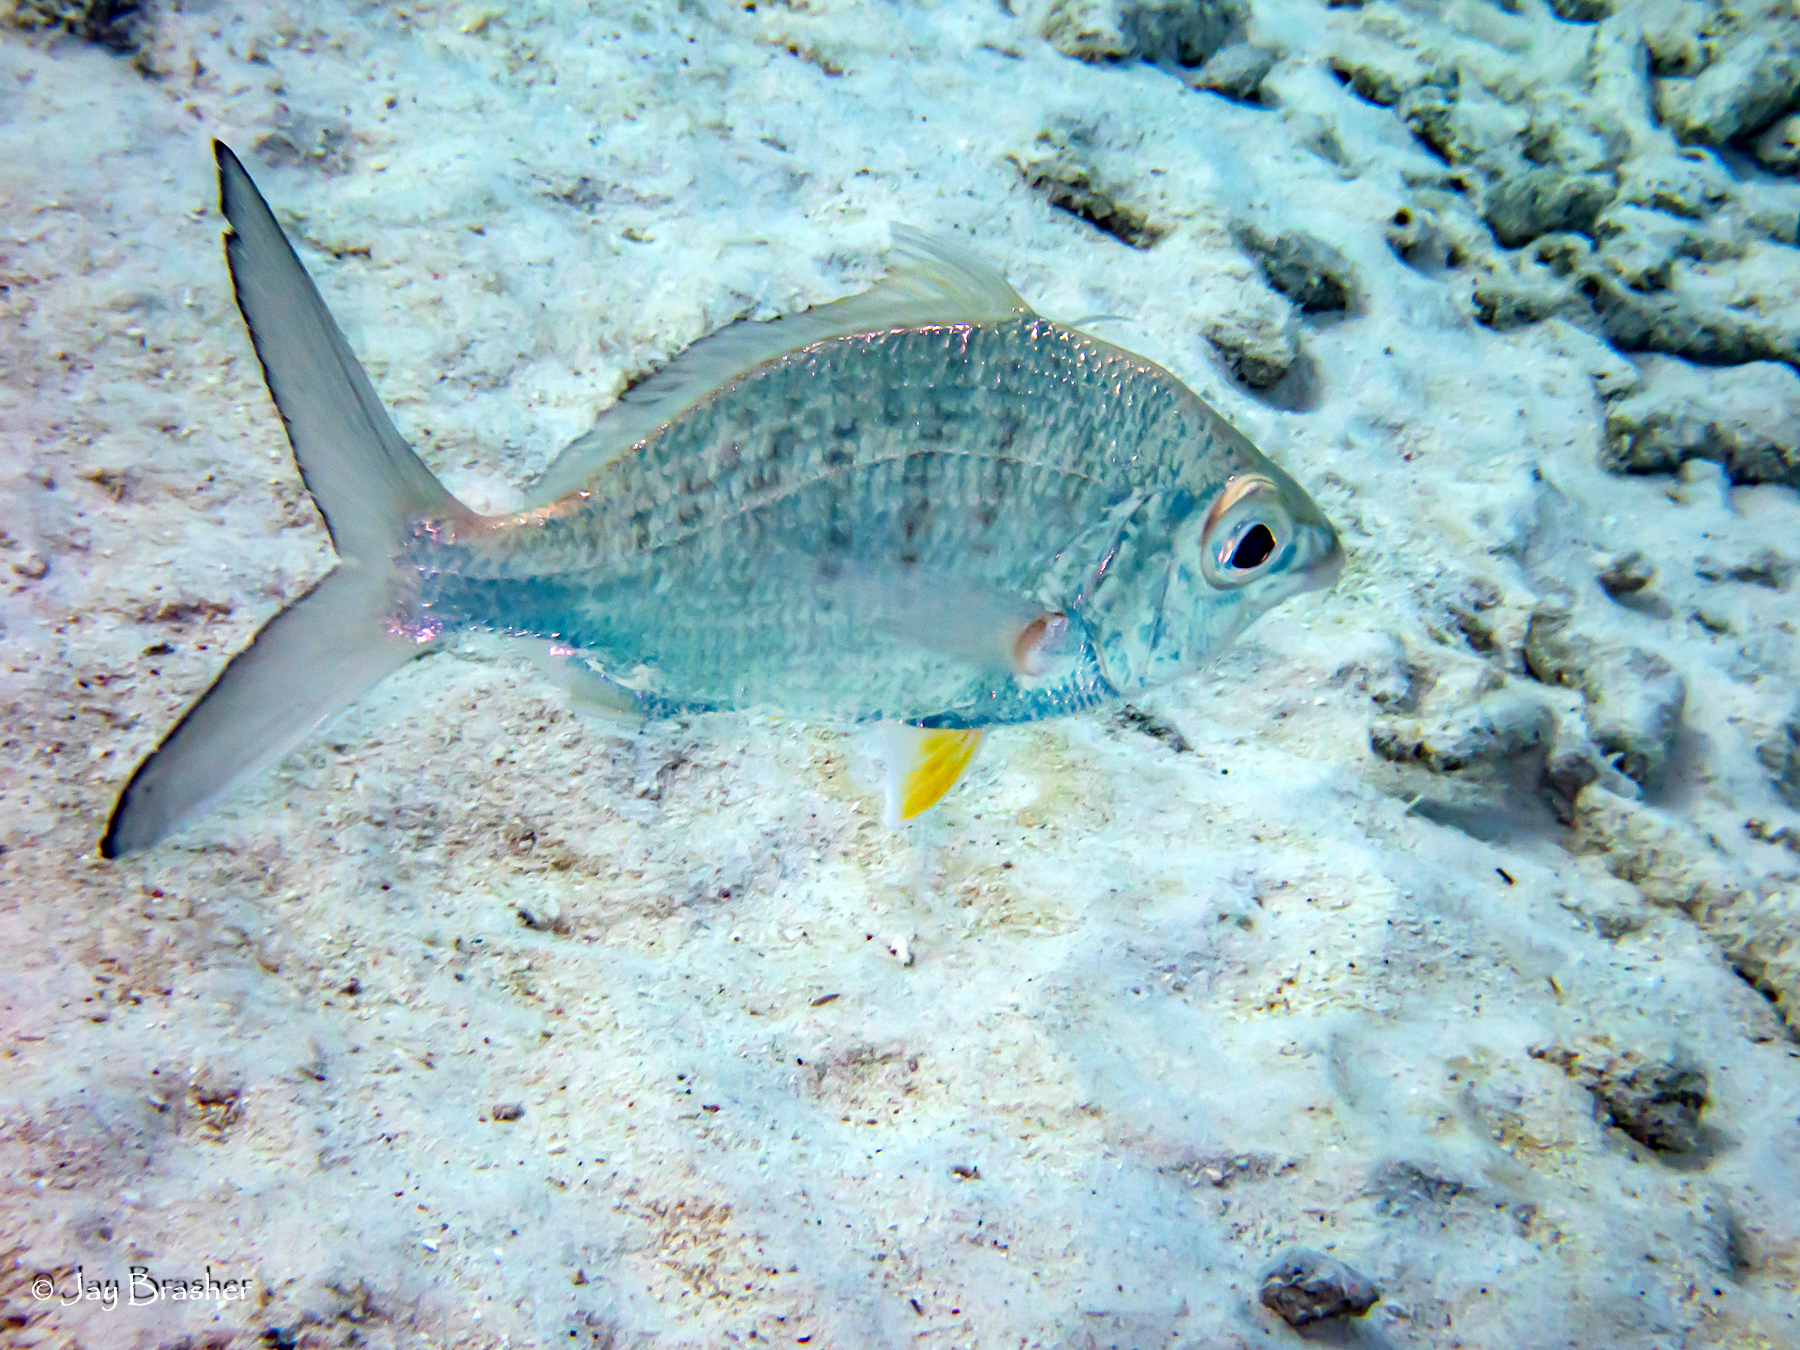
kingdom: Animalia
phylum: Chordata
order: Perciformes
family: Gerreidae
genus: Gerres
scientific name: Gerres cinereus
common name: Hedow
